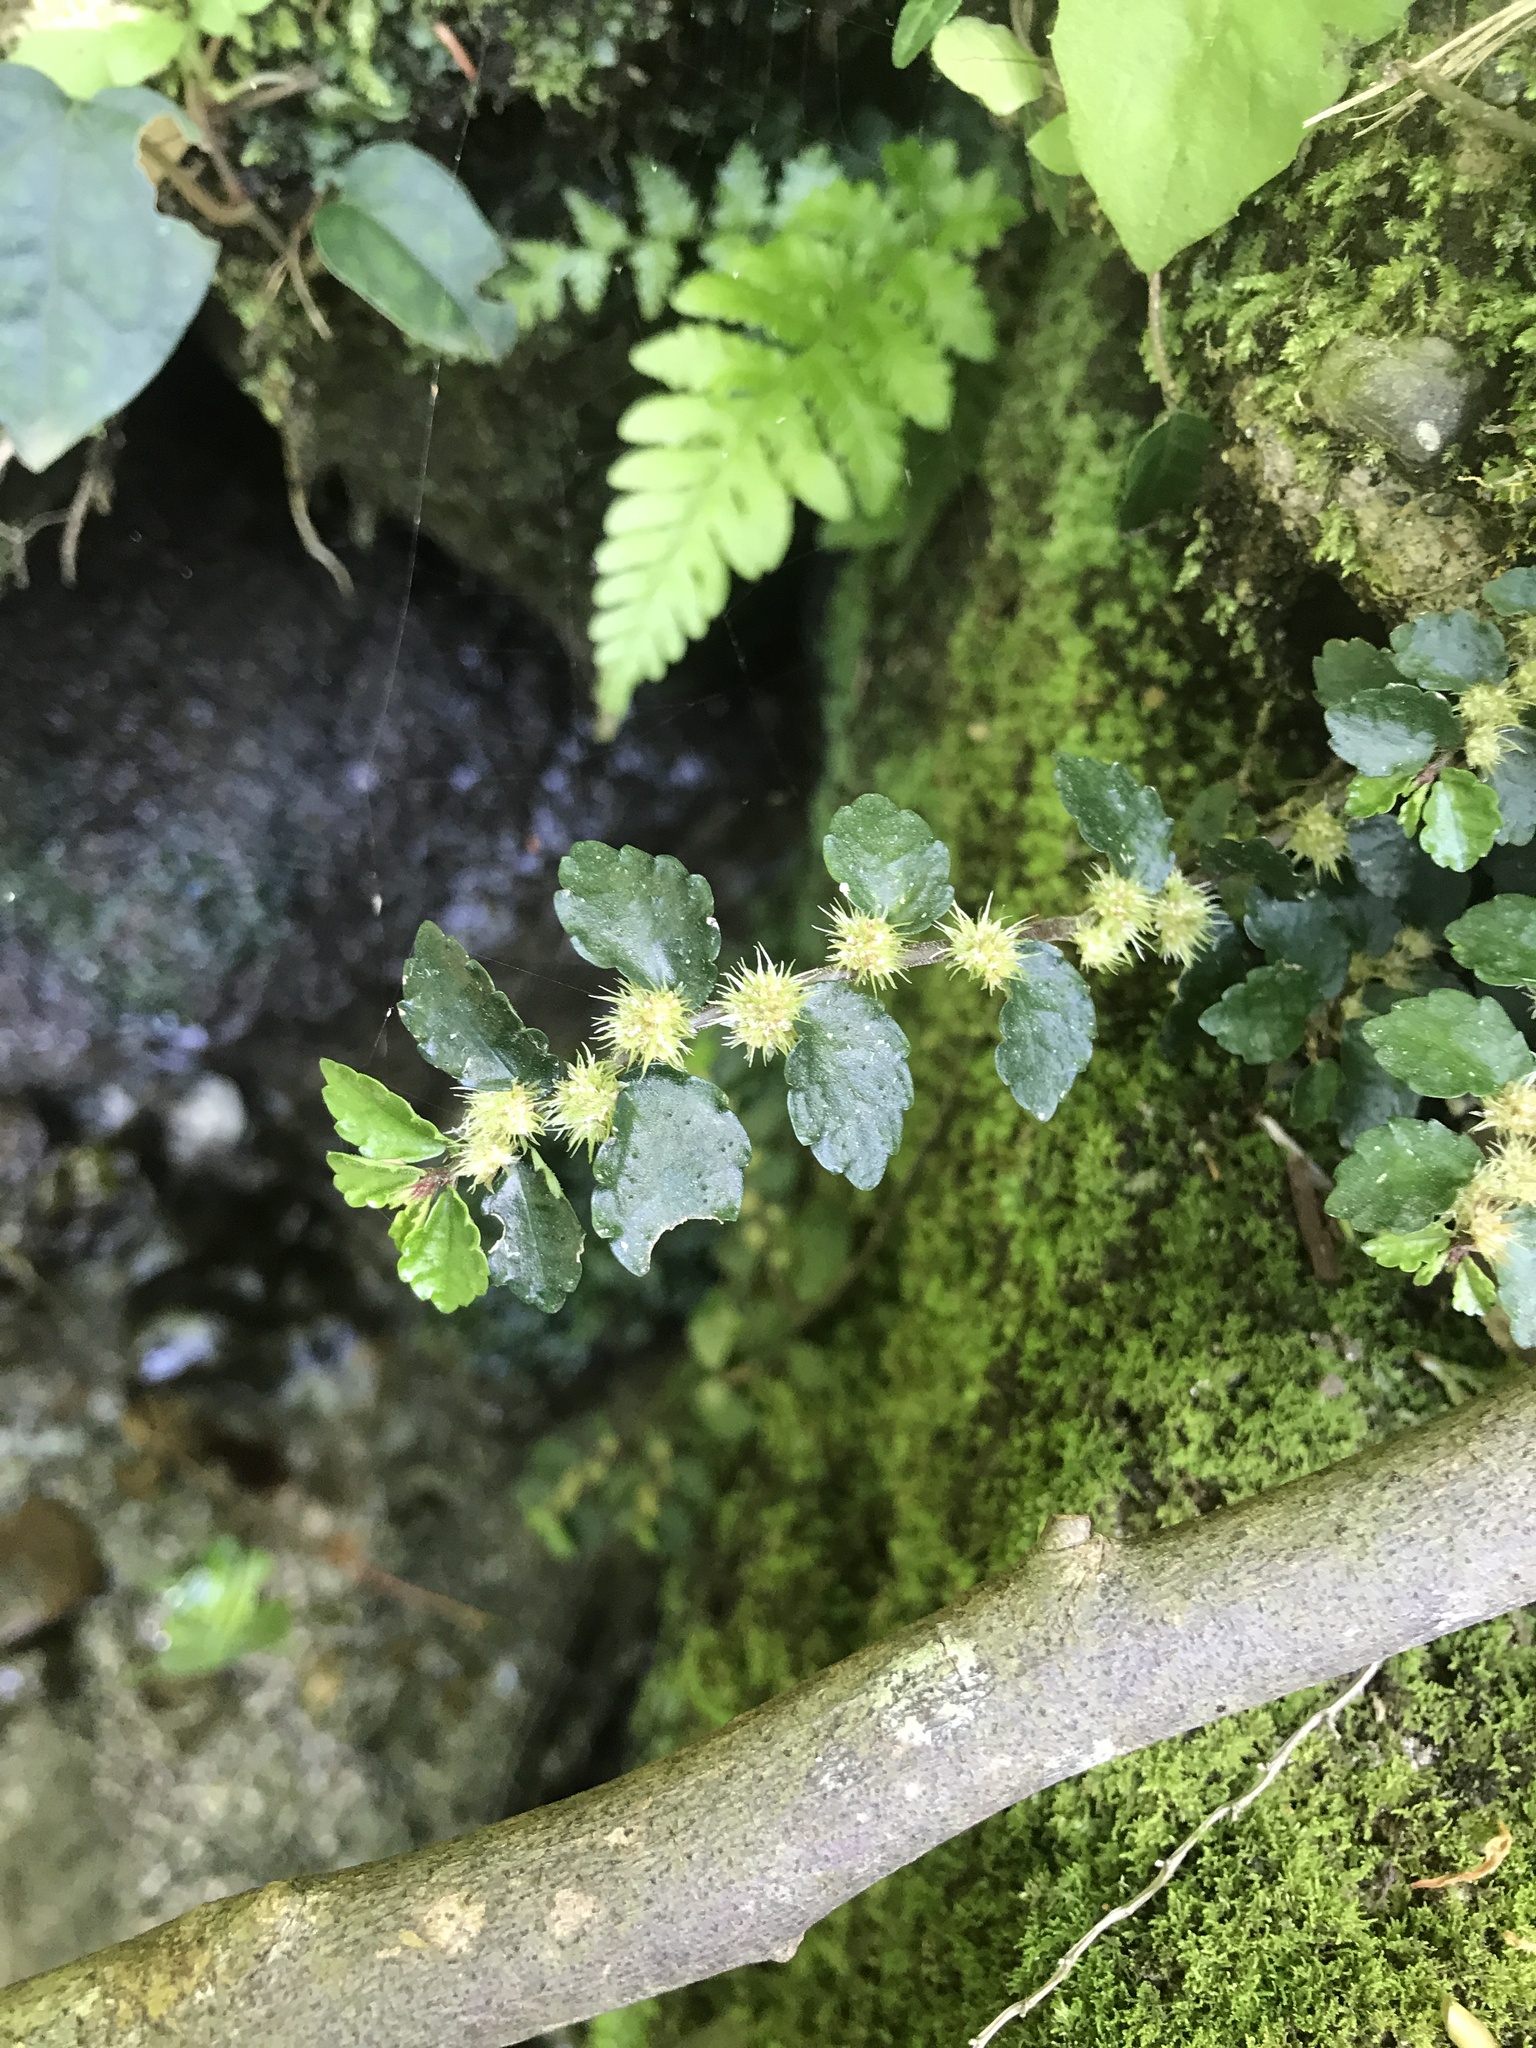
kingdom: Plantae
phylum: Tracheophyta
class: Magnoliopsida
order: Rosales
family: Urticaceae
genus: Elatostema
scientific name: Elatostema brevifolium
